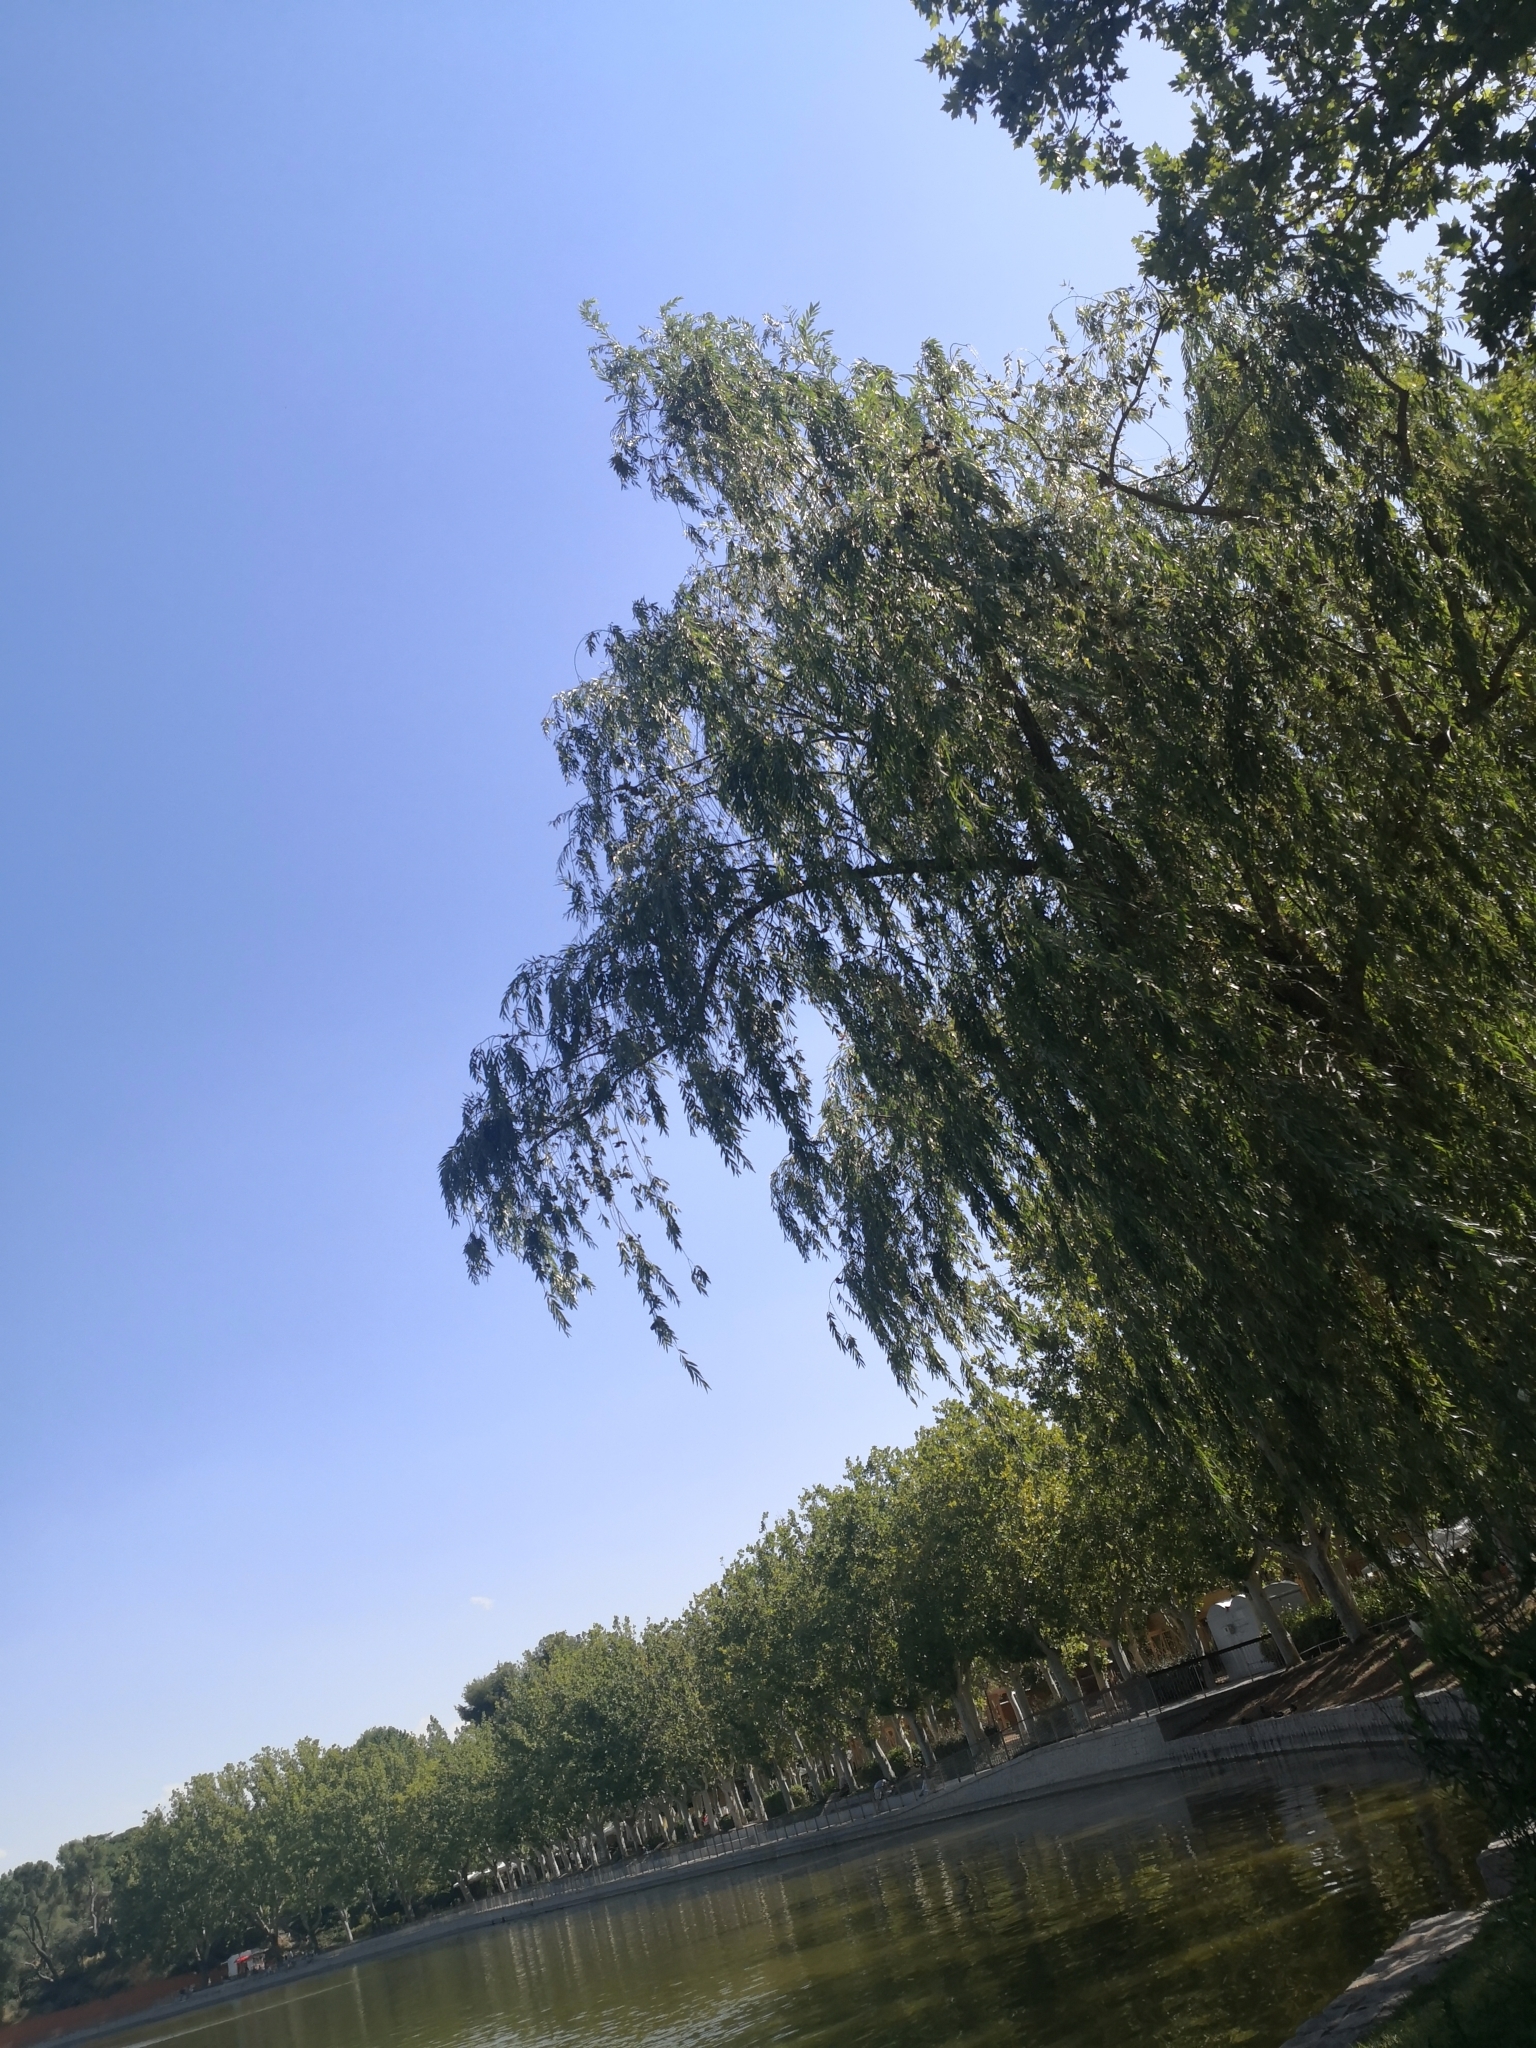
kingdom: Plantae
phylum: Tracheophyta
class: Magnoliopsida
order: Malpighiales
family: Salicaceae
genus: Salix
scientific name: Salix babylonica
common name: Weeping willow
